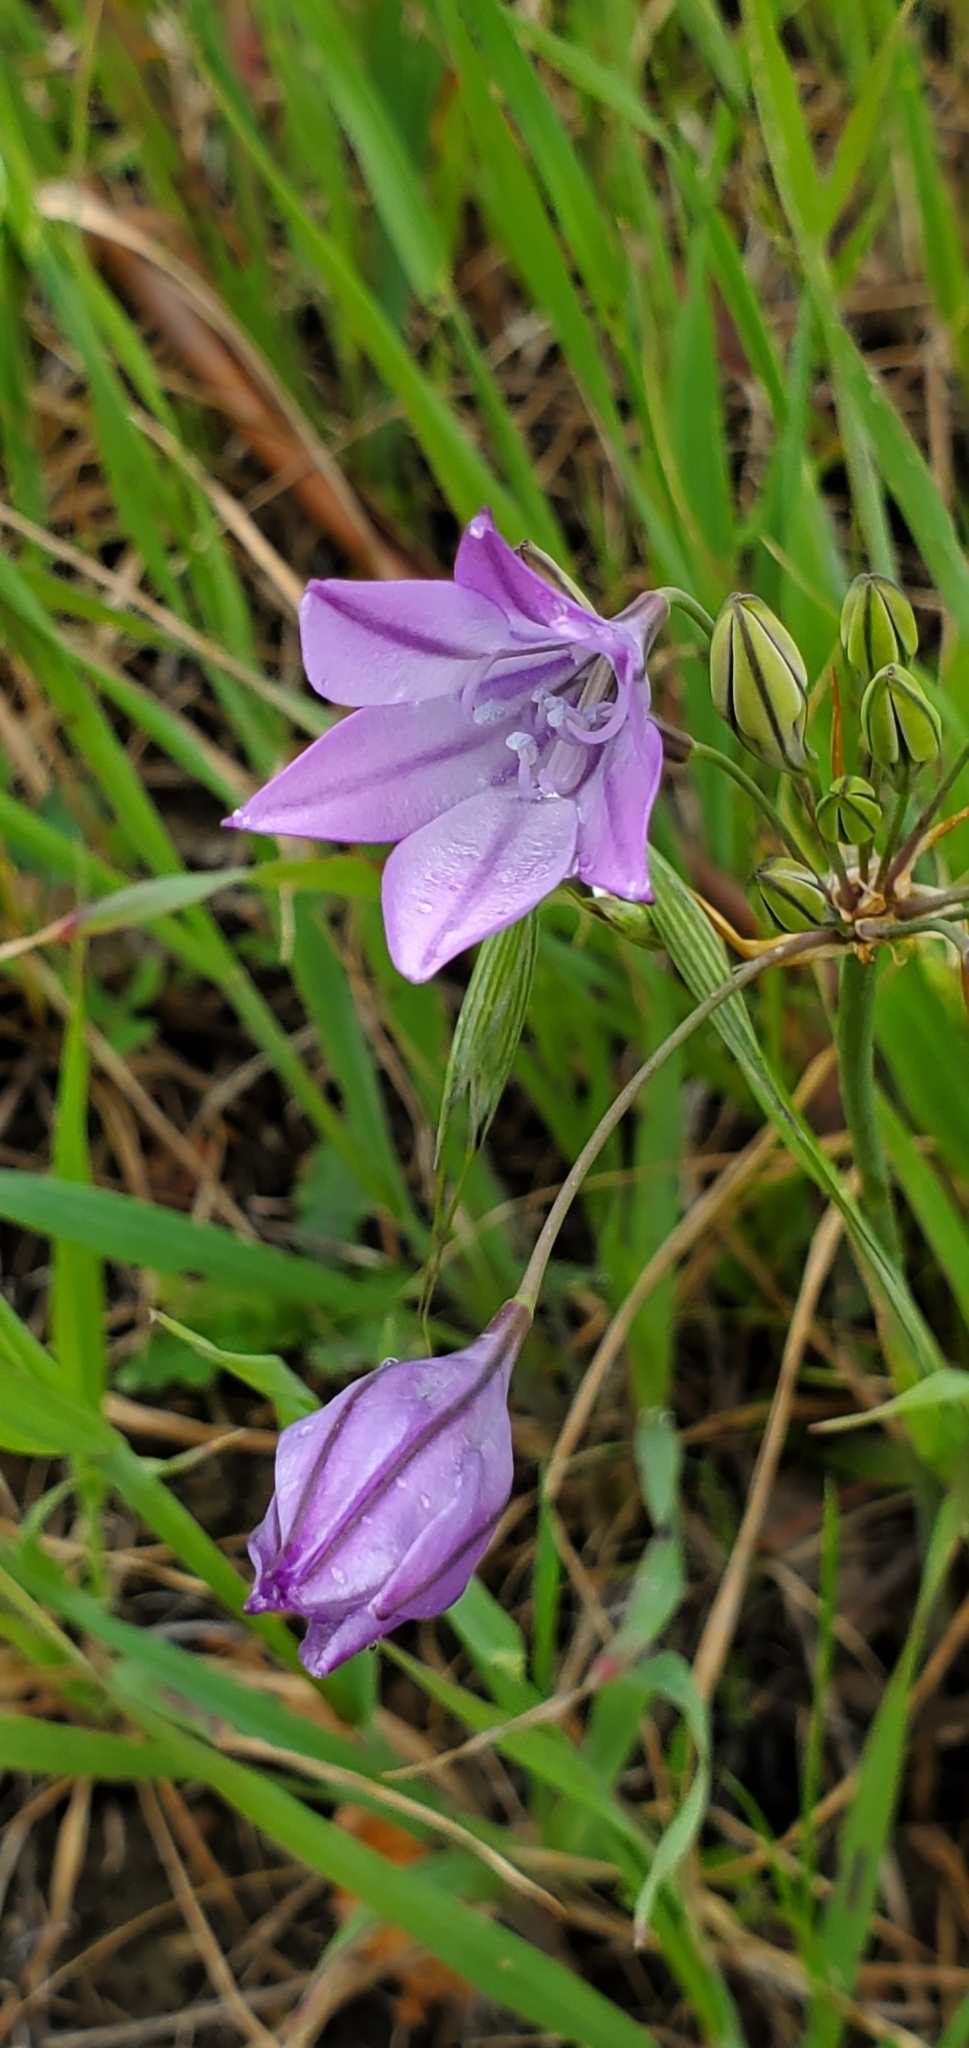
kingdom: Plantae
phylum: Tracheophyta
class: Liliopsida
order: Asparagales
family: Asparagaceae
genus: Triteleia
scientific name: Triteleia laxa
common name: Triplet-lily
